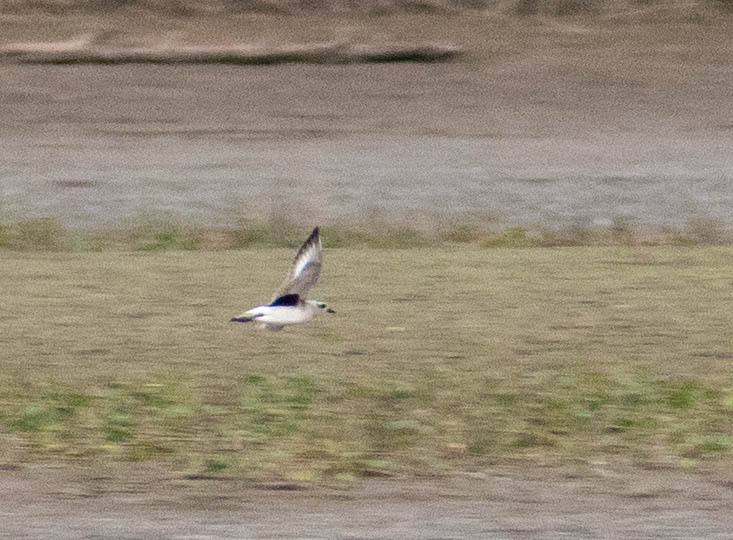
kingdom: Animalia
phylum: Chordata
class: Aves
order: Charadriiformes
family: Charadriidae
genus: Pluvialis
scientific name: Pluvialis squatarola
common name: Grey plover
